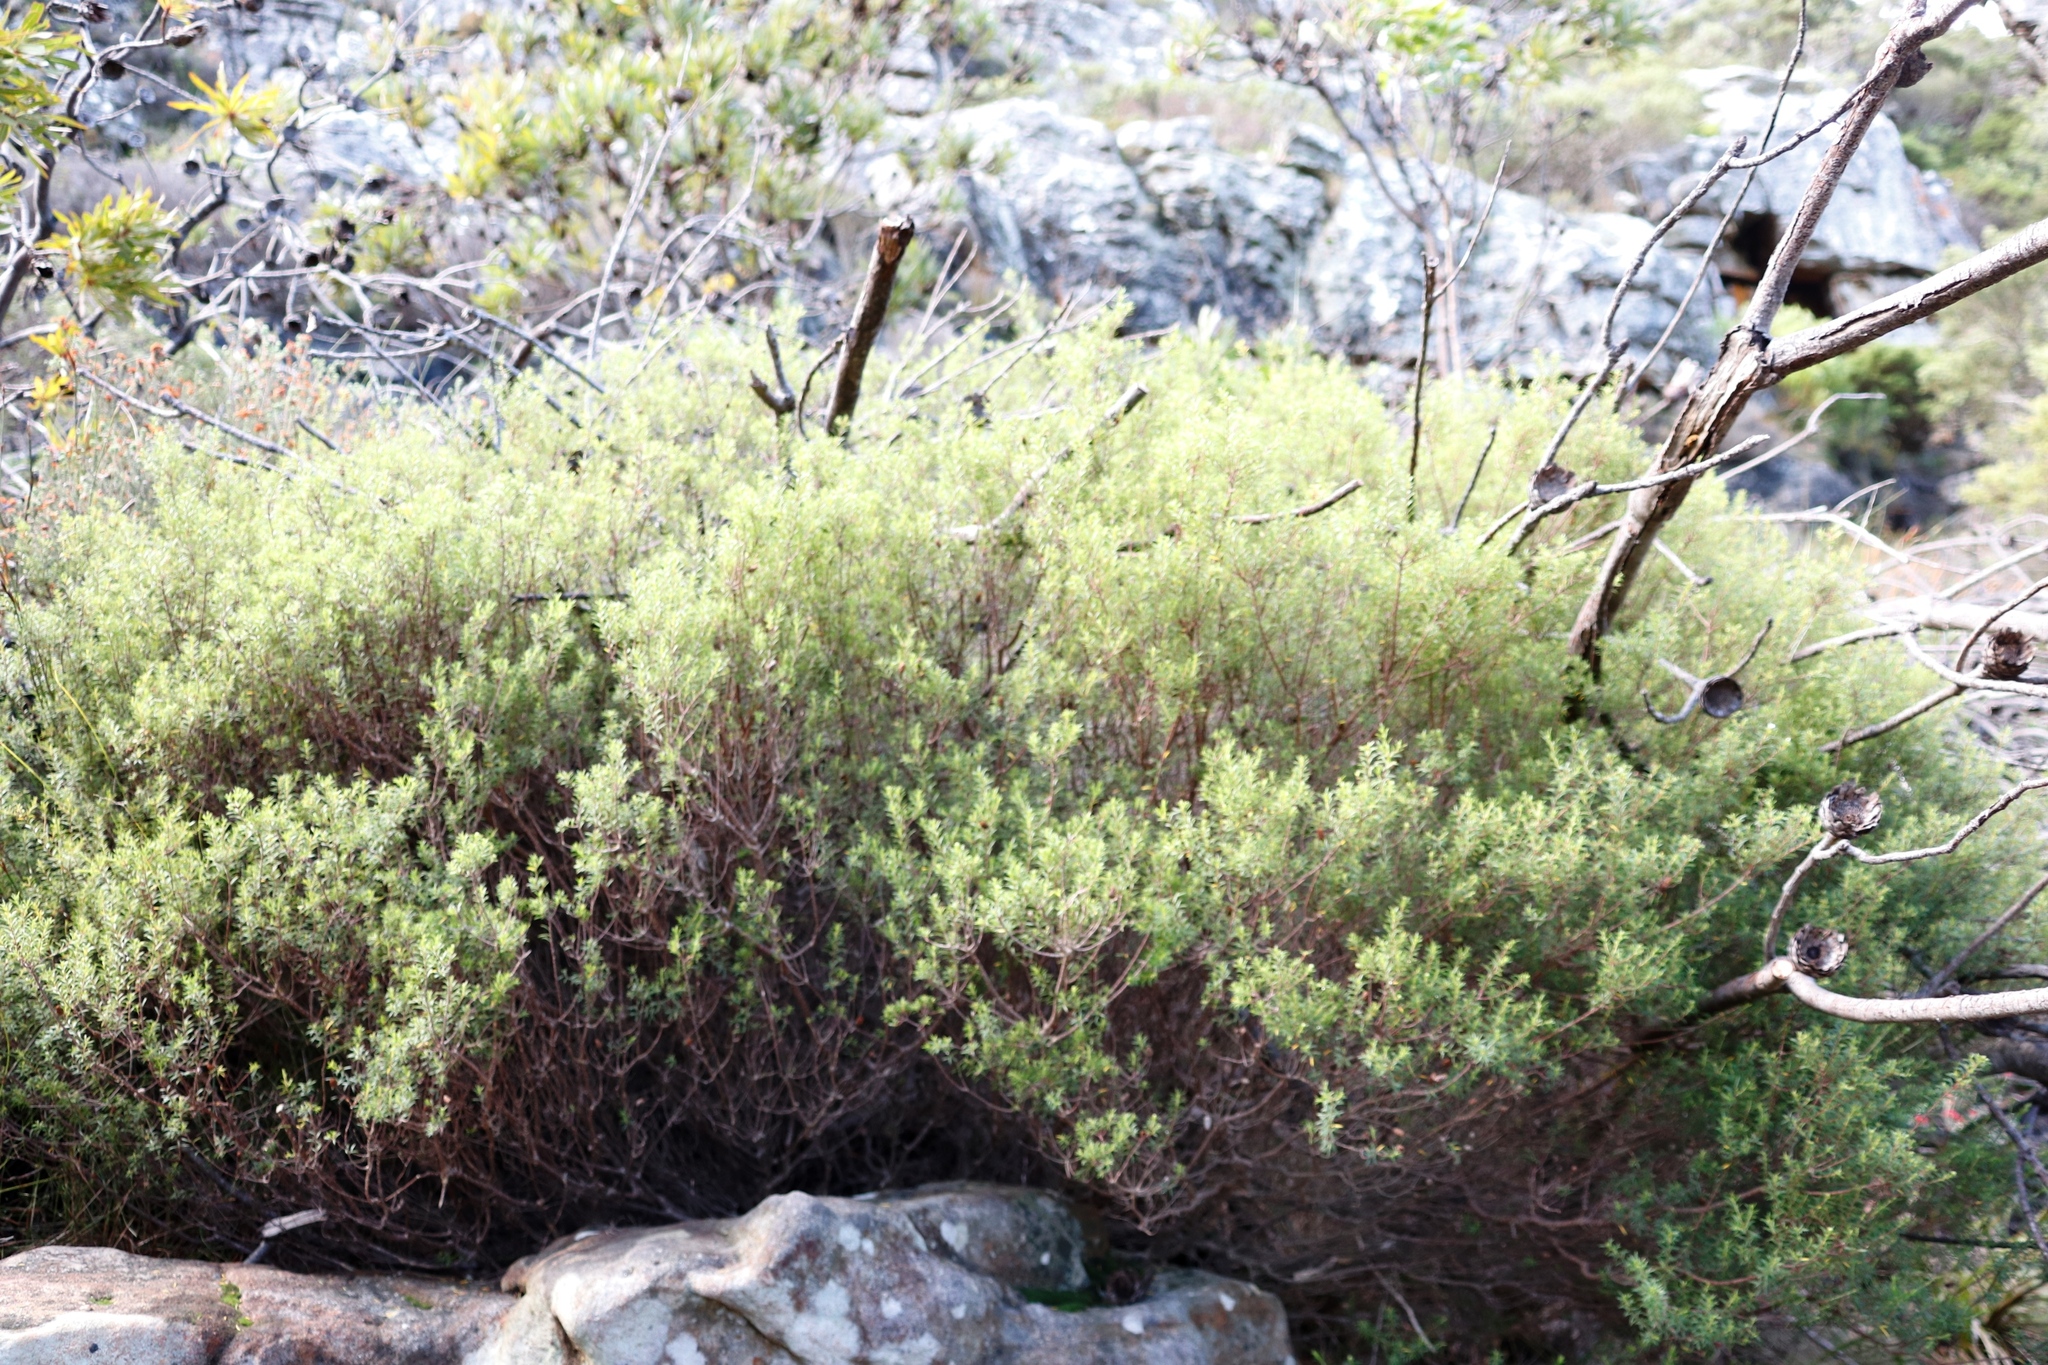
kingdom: Plantae
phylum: Tracheophyta
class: Magnoliopsida
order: Sapindales
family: Rutaceae
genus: Coleonema
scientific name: Coleonema album
